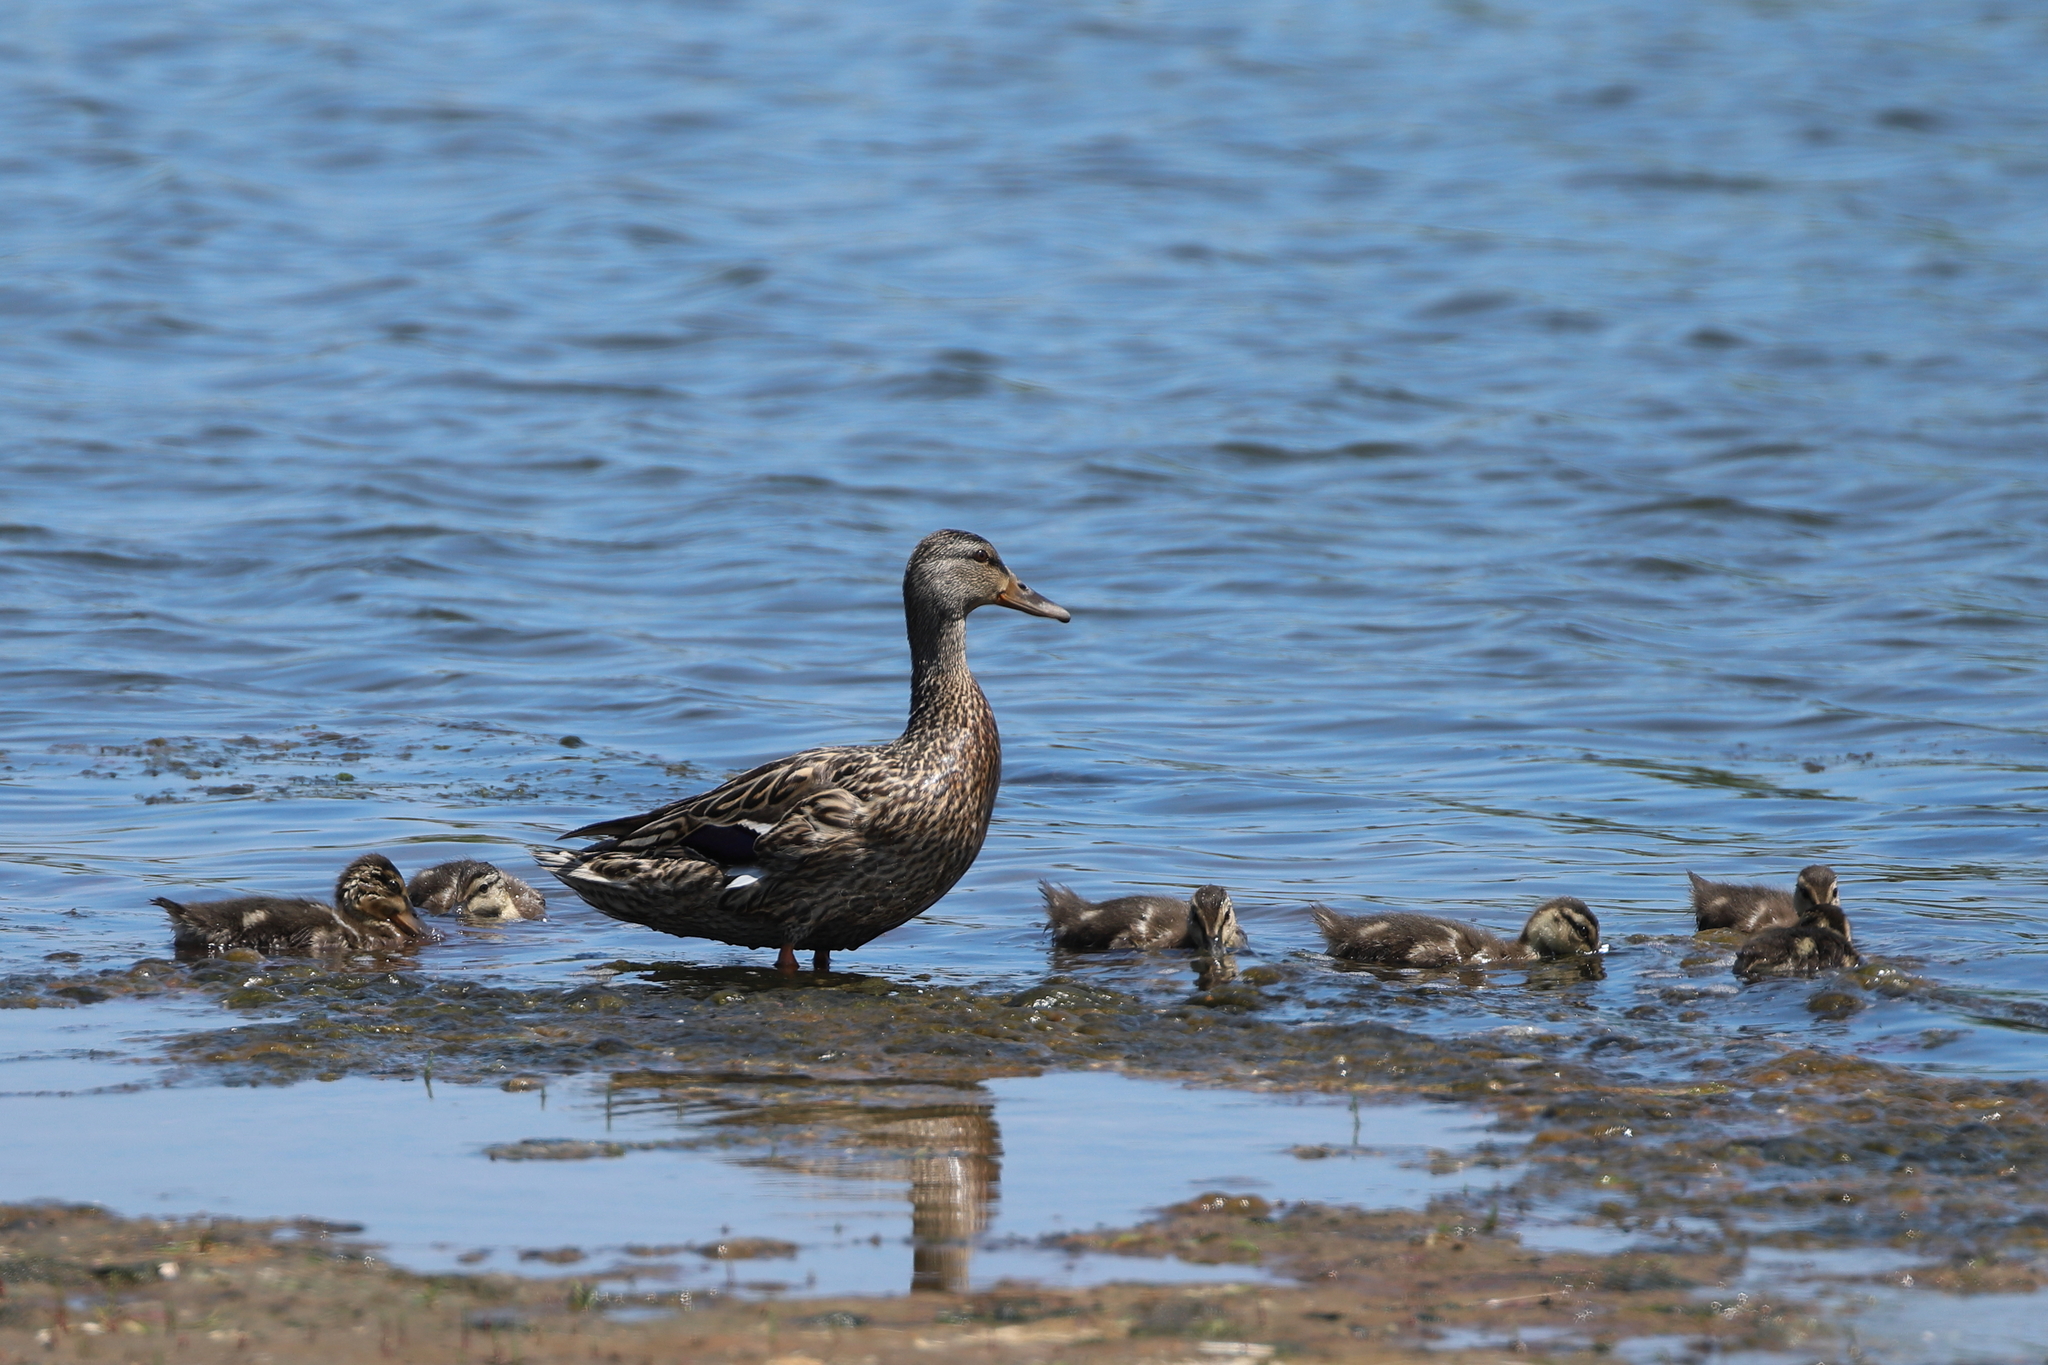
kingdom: Animalia
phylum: Chordata
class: Aves
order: Anseriformes
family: Anatidae
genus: Anas
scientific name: Anas platyrhynchos
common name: Mallard
